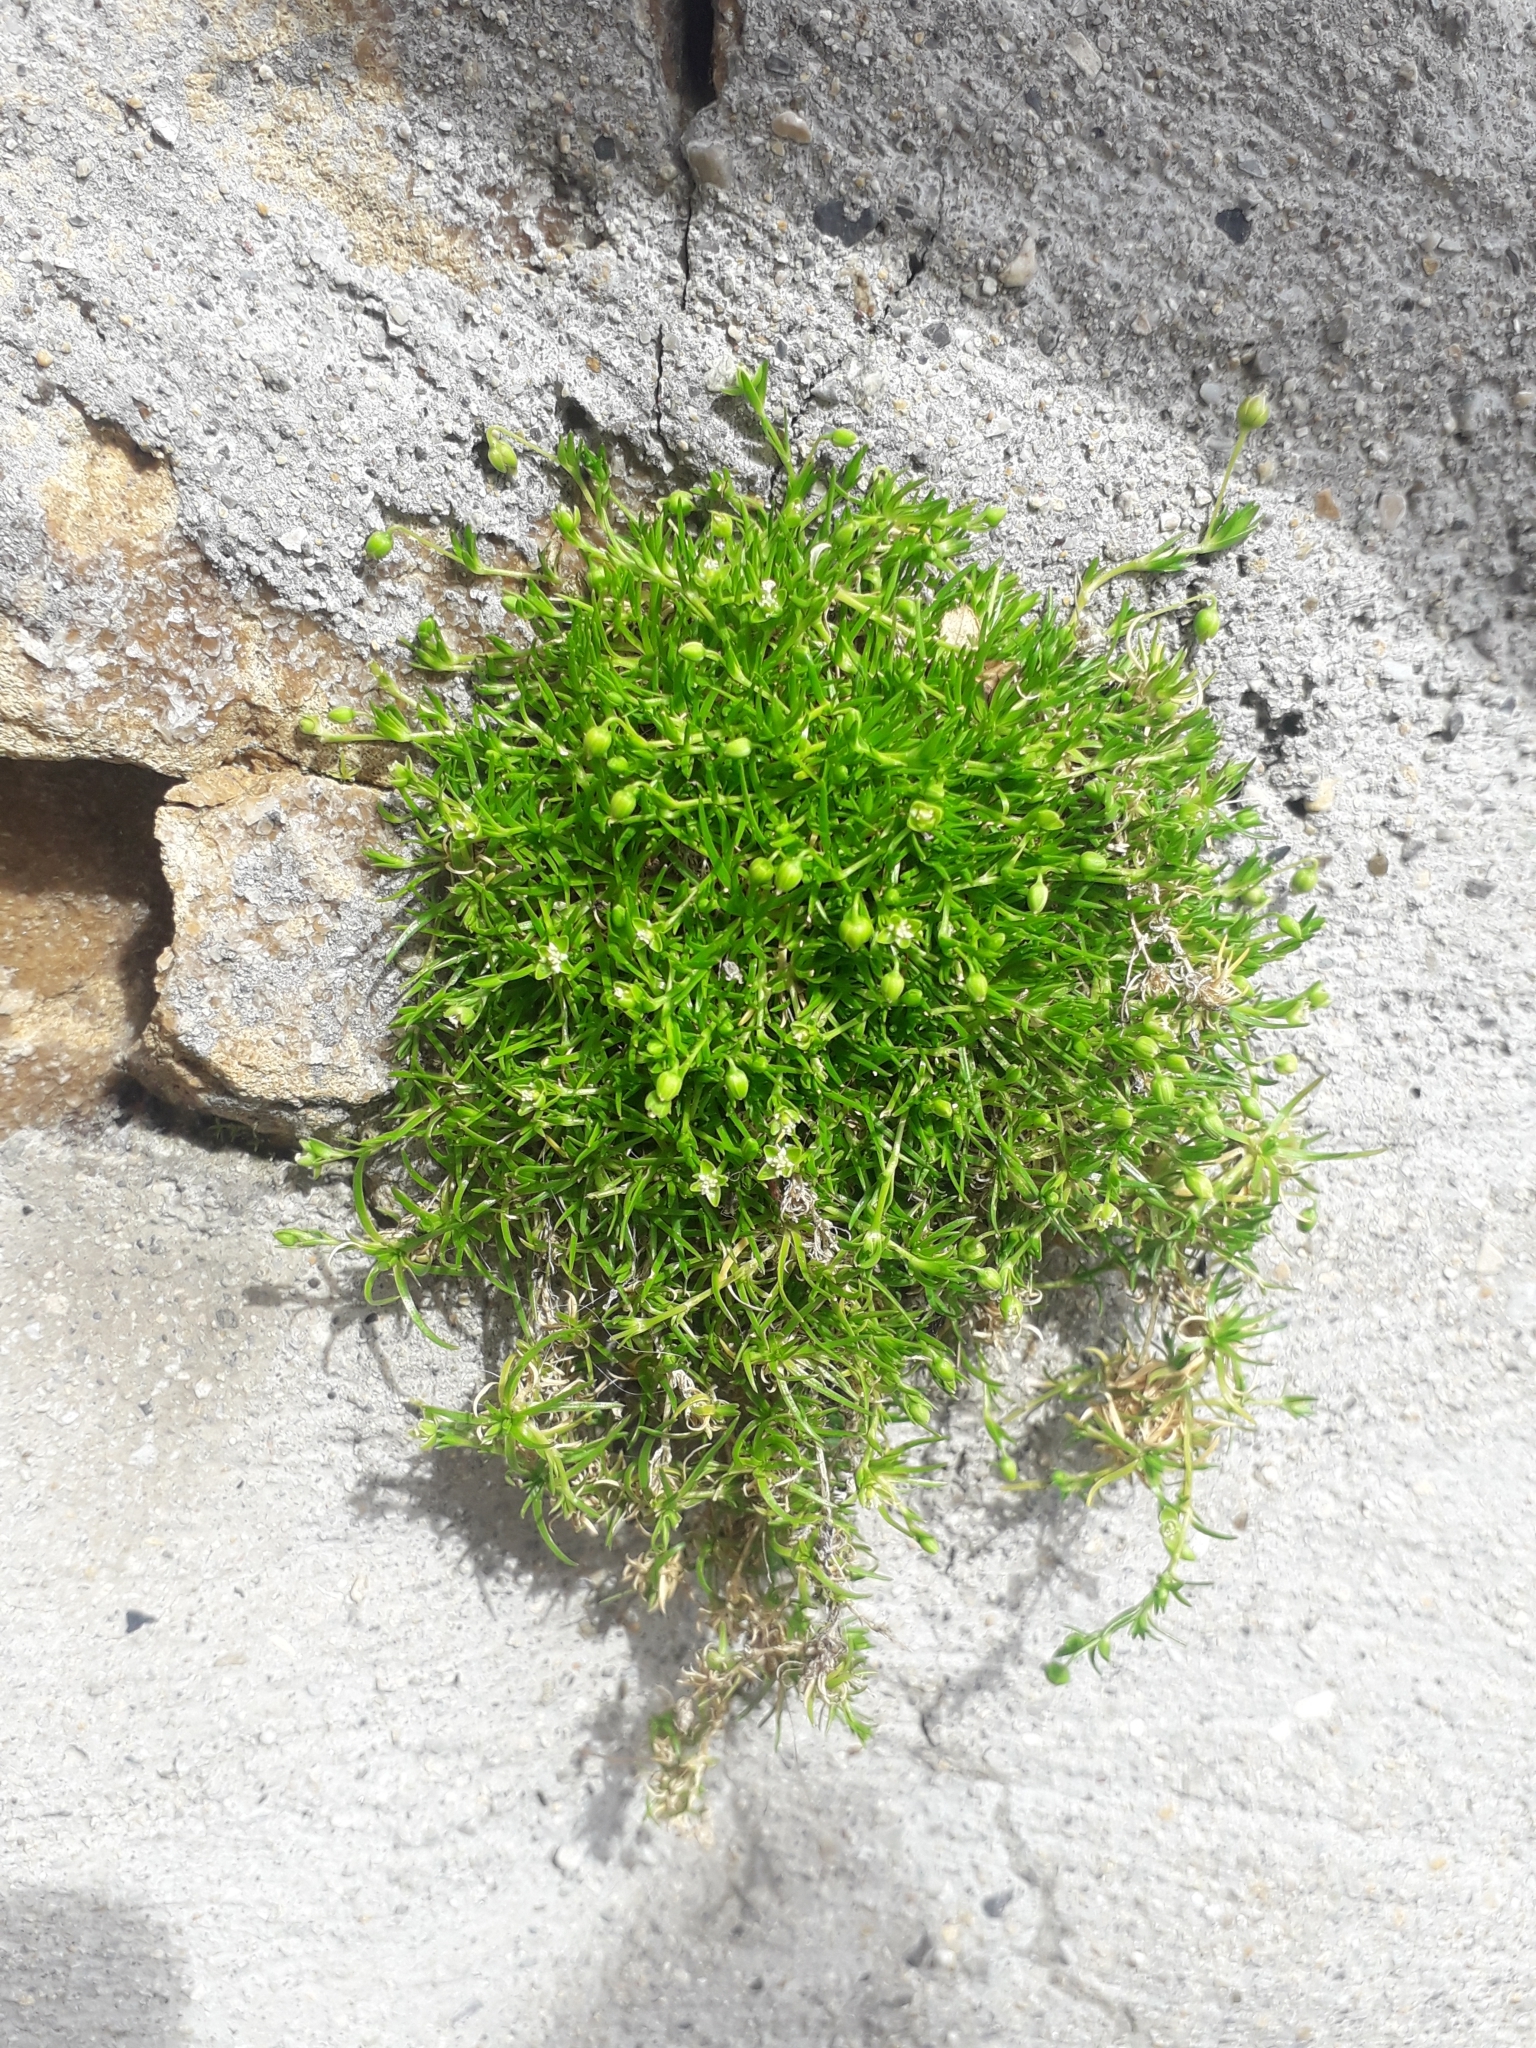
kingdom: Plantae
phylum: Tracheophyta
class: Magnoliopsida
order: Caryophyllales
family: Caryophyllaceae
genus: Sagina
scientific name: Sagina procumbens
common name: Procumbent pearlwort
